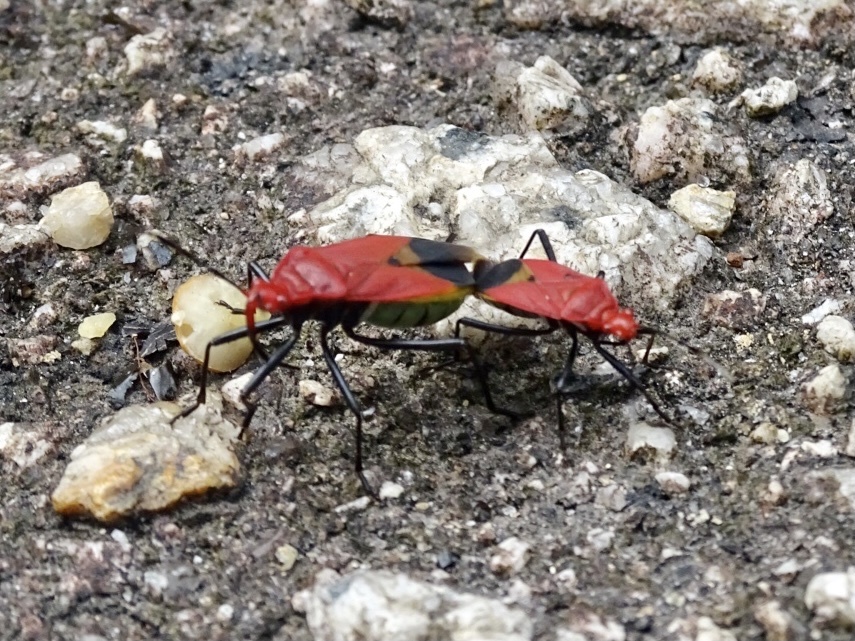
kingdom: Animalia
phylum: Arthropoda
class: Insecta
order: Hemiptera
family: Pyrrhocoridae
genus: Dindymus
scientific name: Dindymus
